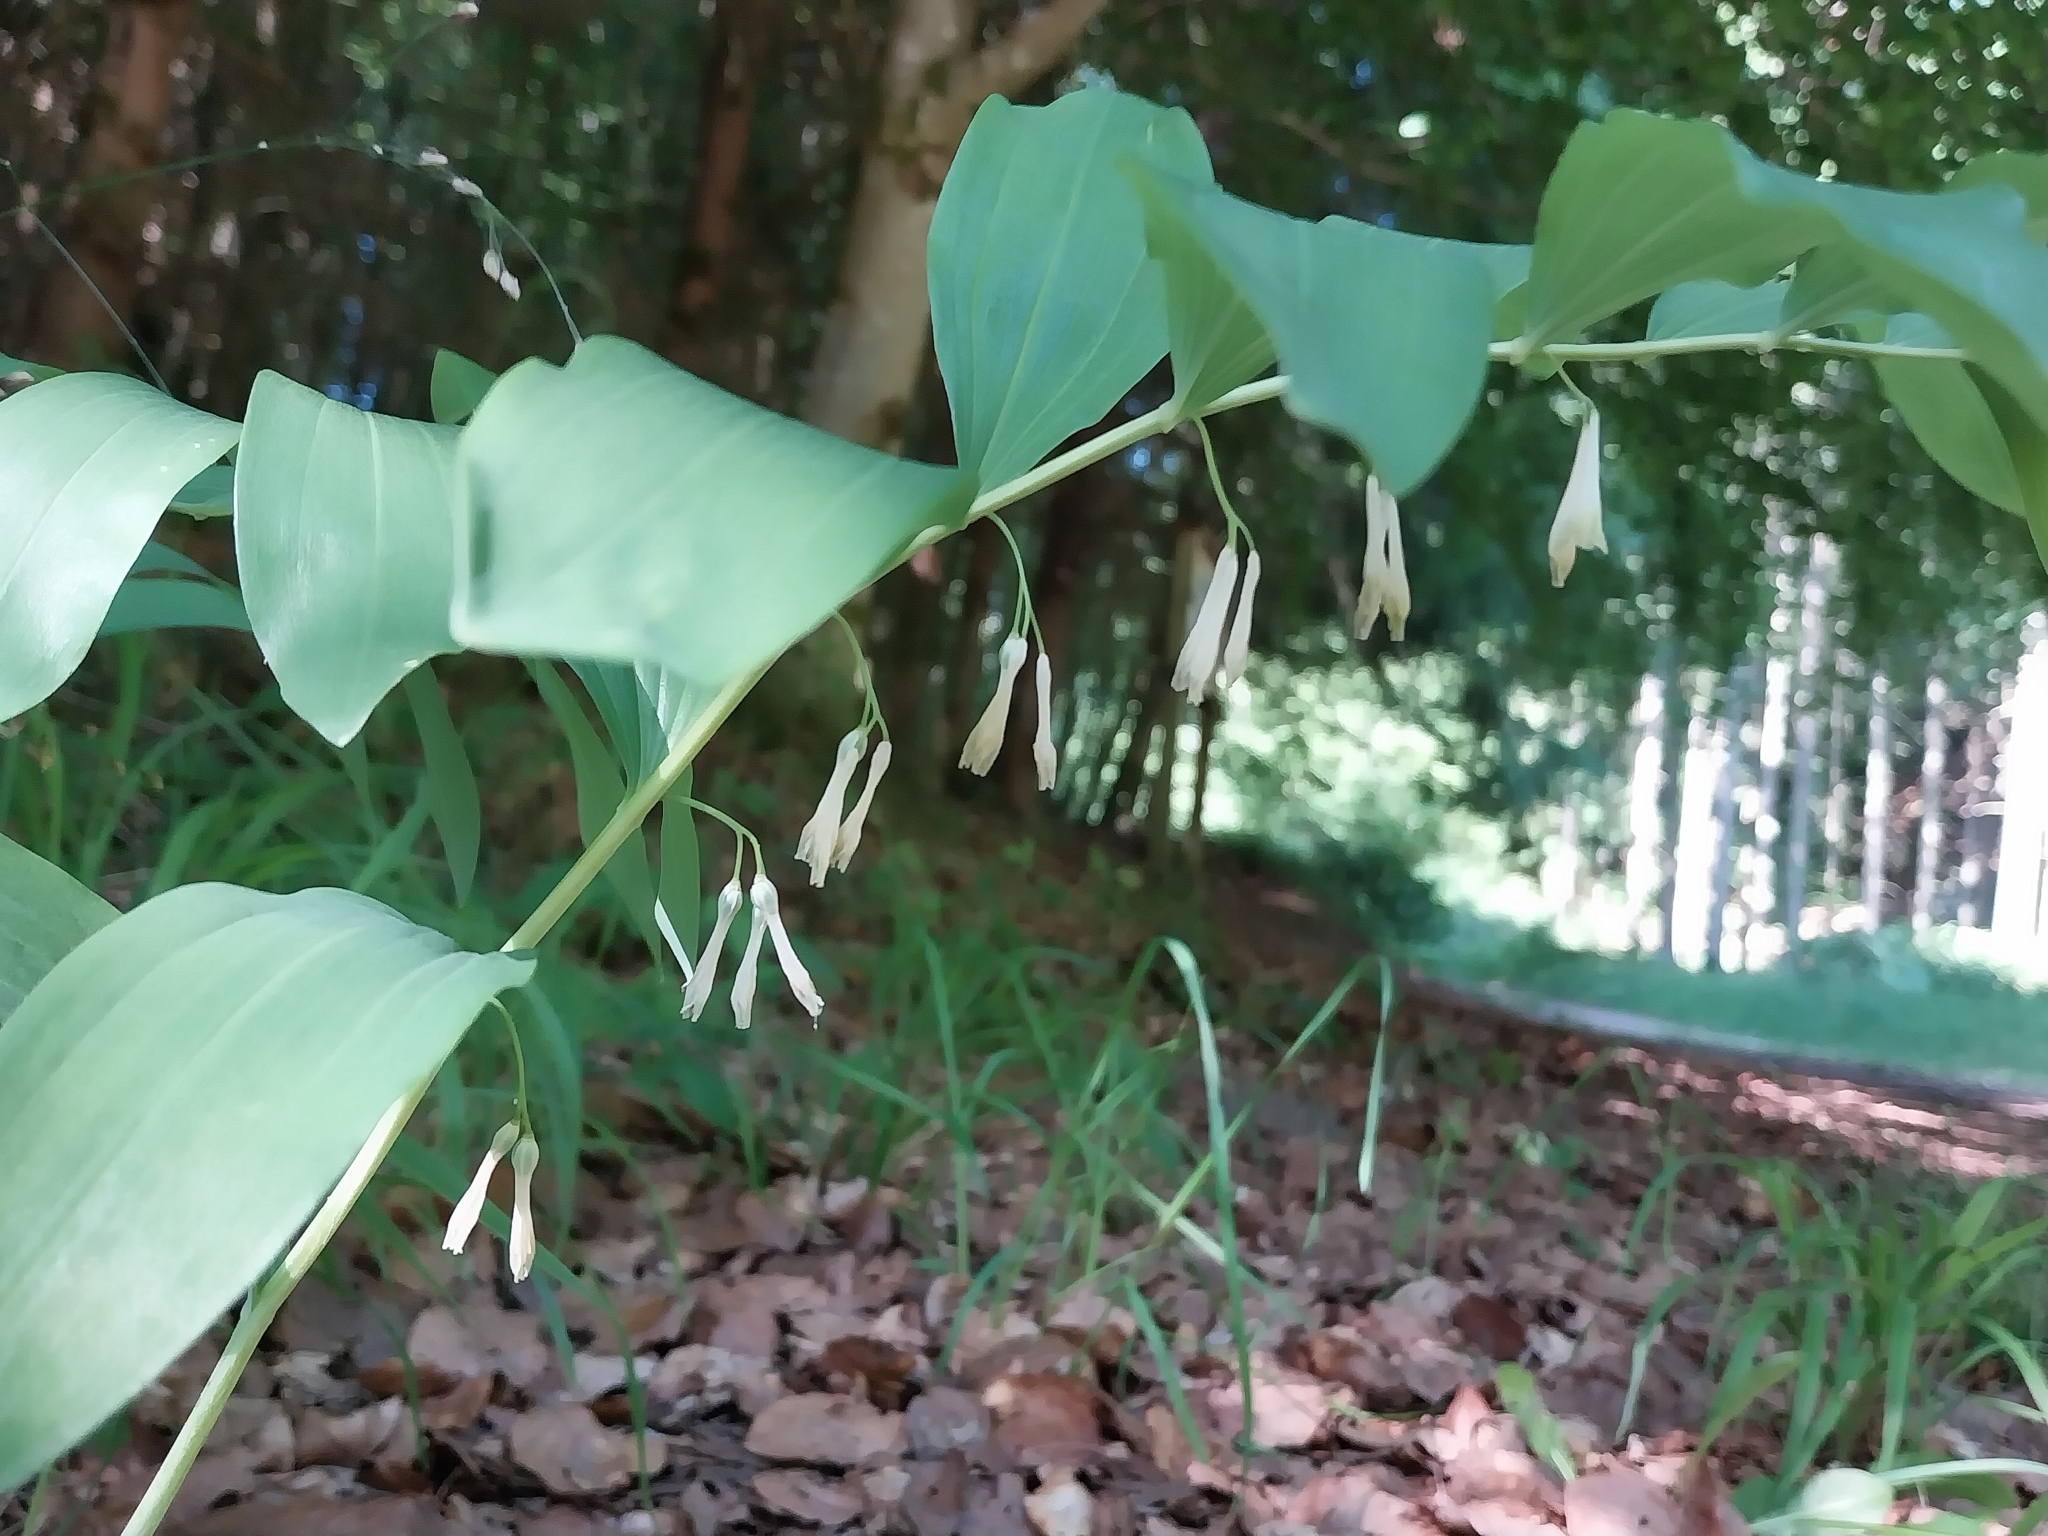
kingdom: Plantae
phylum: Tracheophyta
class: Liliopsida
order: Asparagales
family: Asparagaceae
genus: Polygonatum
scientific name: Polygonatum multiflorum
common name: Solomon's-seal
